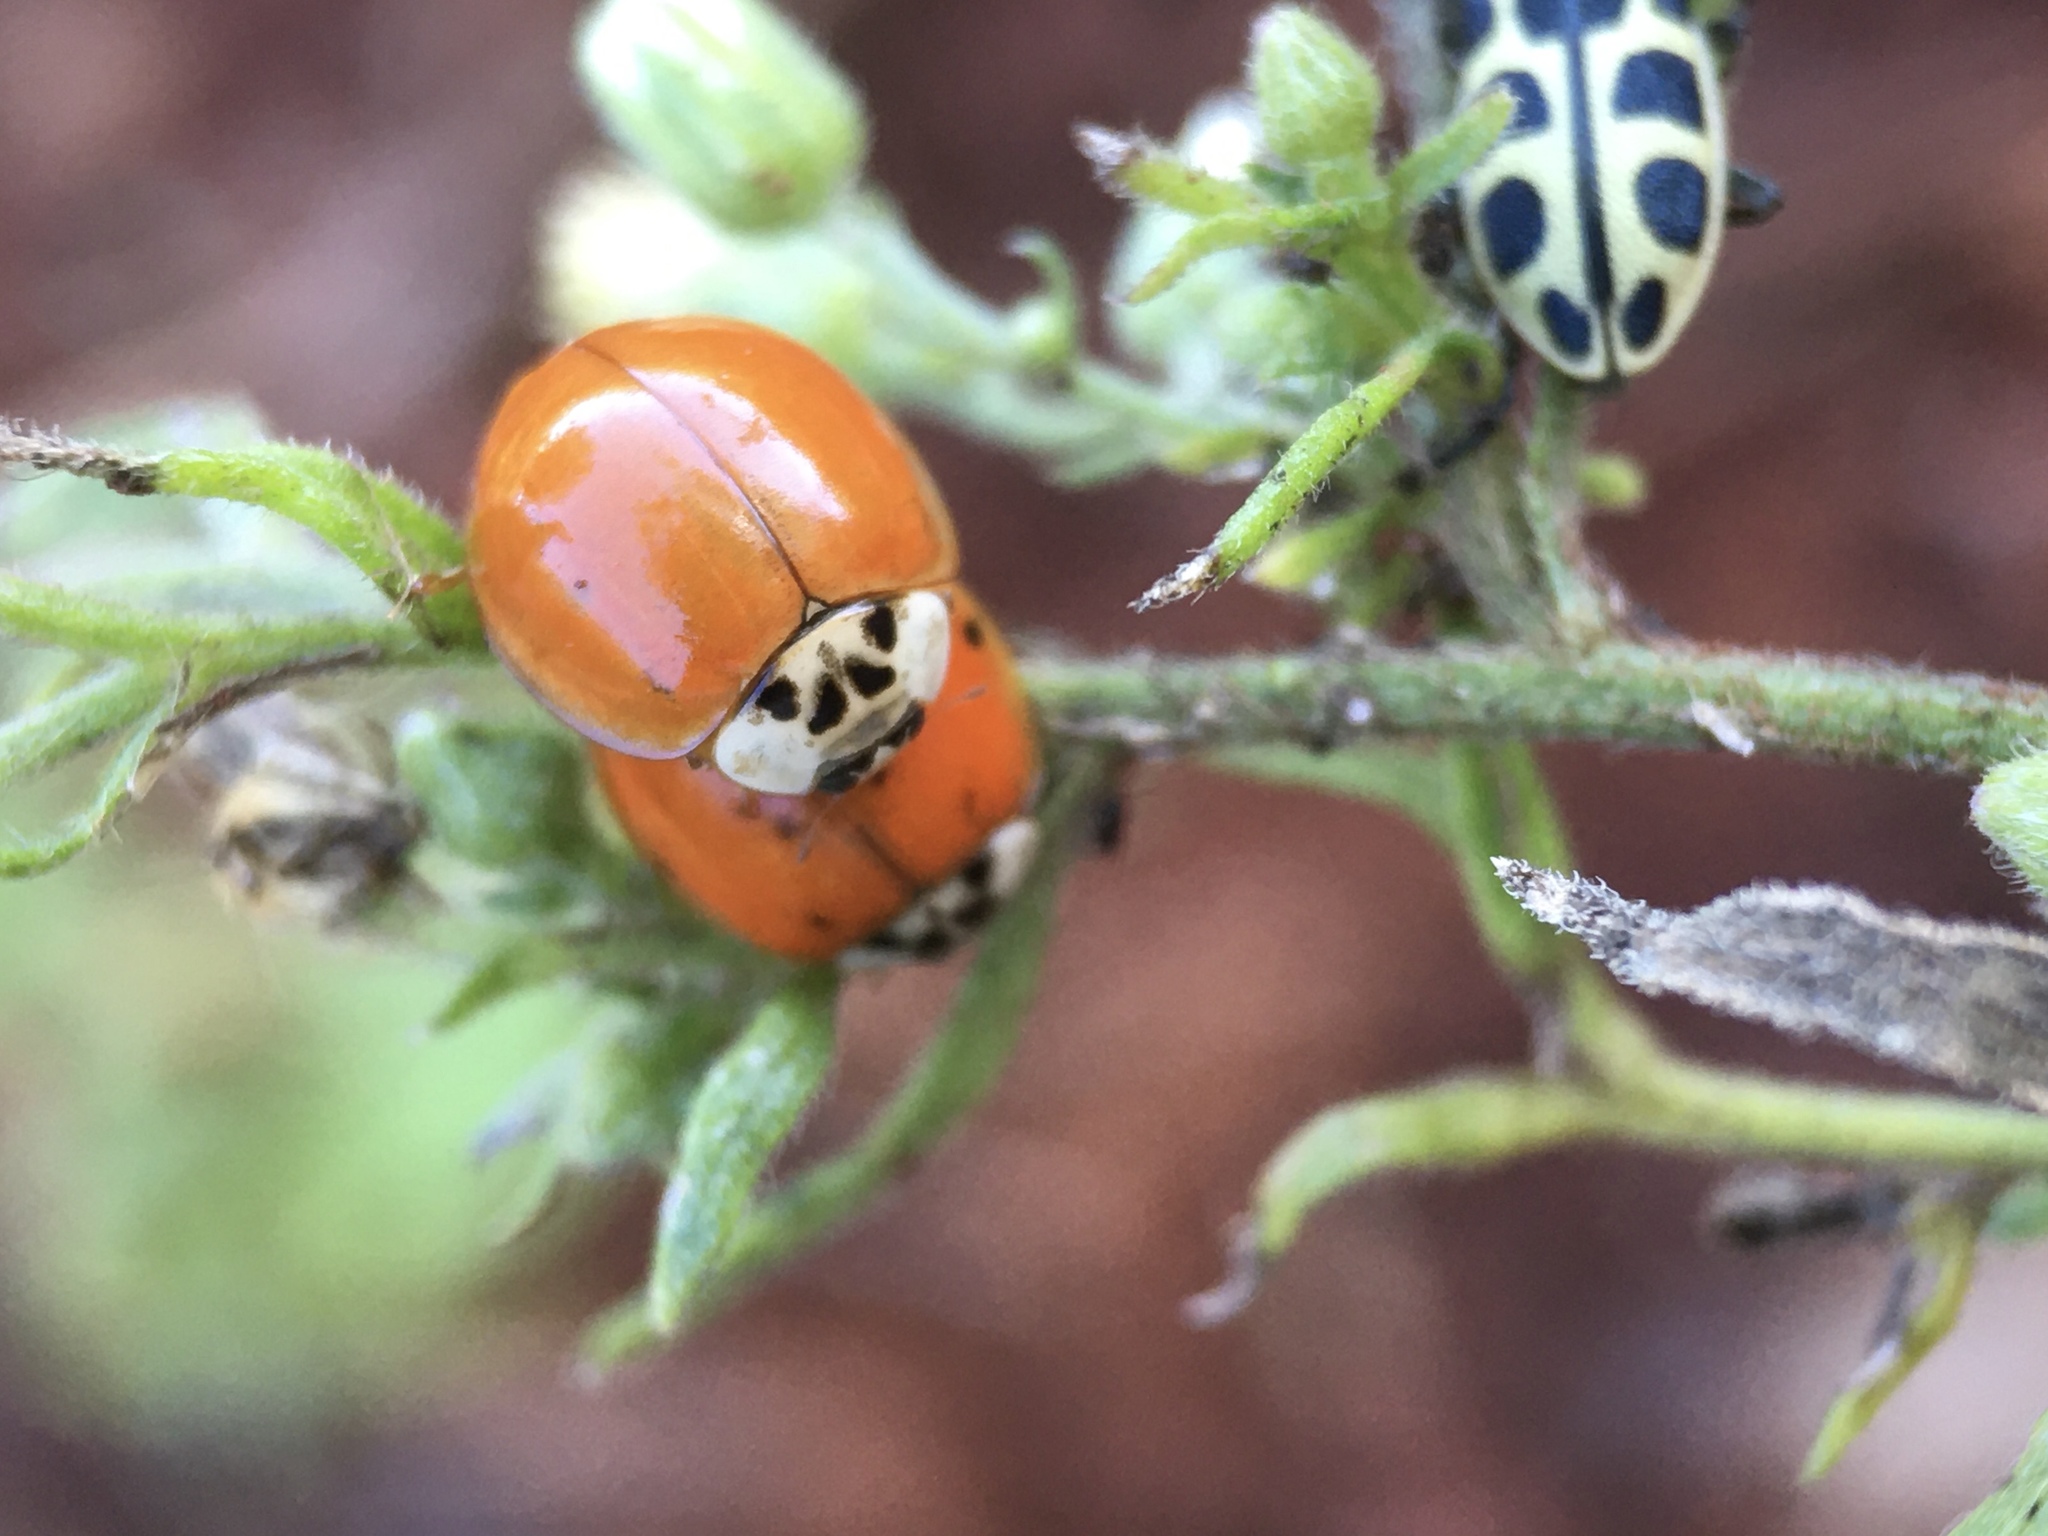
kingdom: Animalia
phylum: Arthropoda
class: Insecta
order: Coleoptera
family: Coccinellidae
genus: Harmonia
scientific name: Harmonia axyridis
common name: Harlequin ladybird
